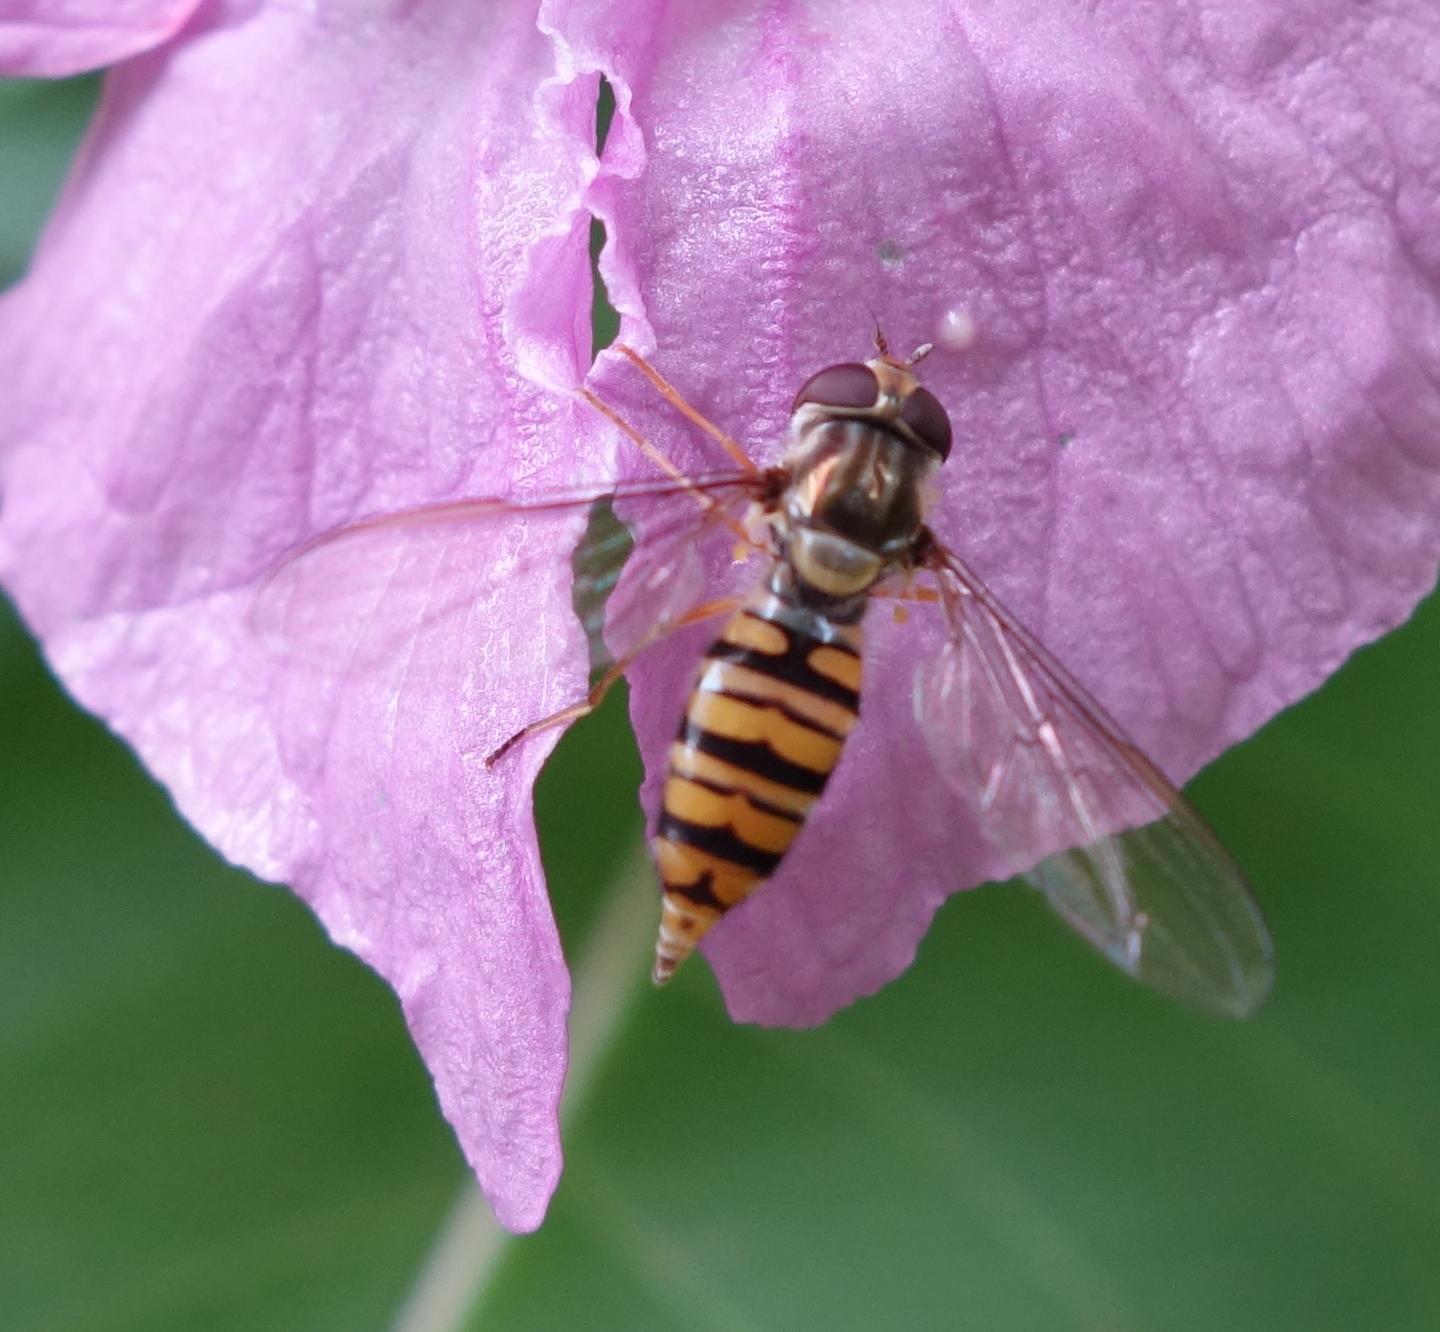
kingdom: Animalia
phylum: Arthropoda
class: Insecta
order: Diptera
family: Syrphidae
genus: Episyrphus
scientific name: Episyrphus balteatus
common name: Marmalade hoverfly
